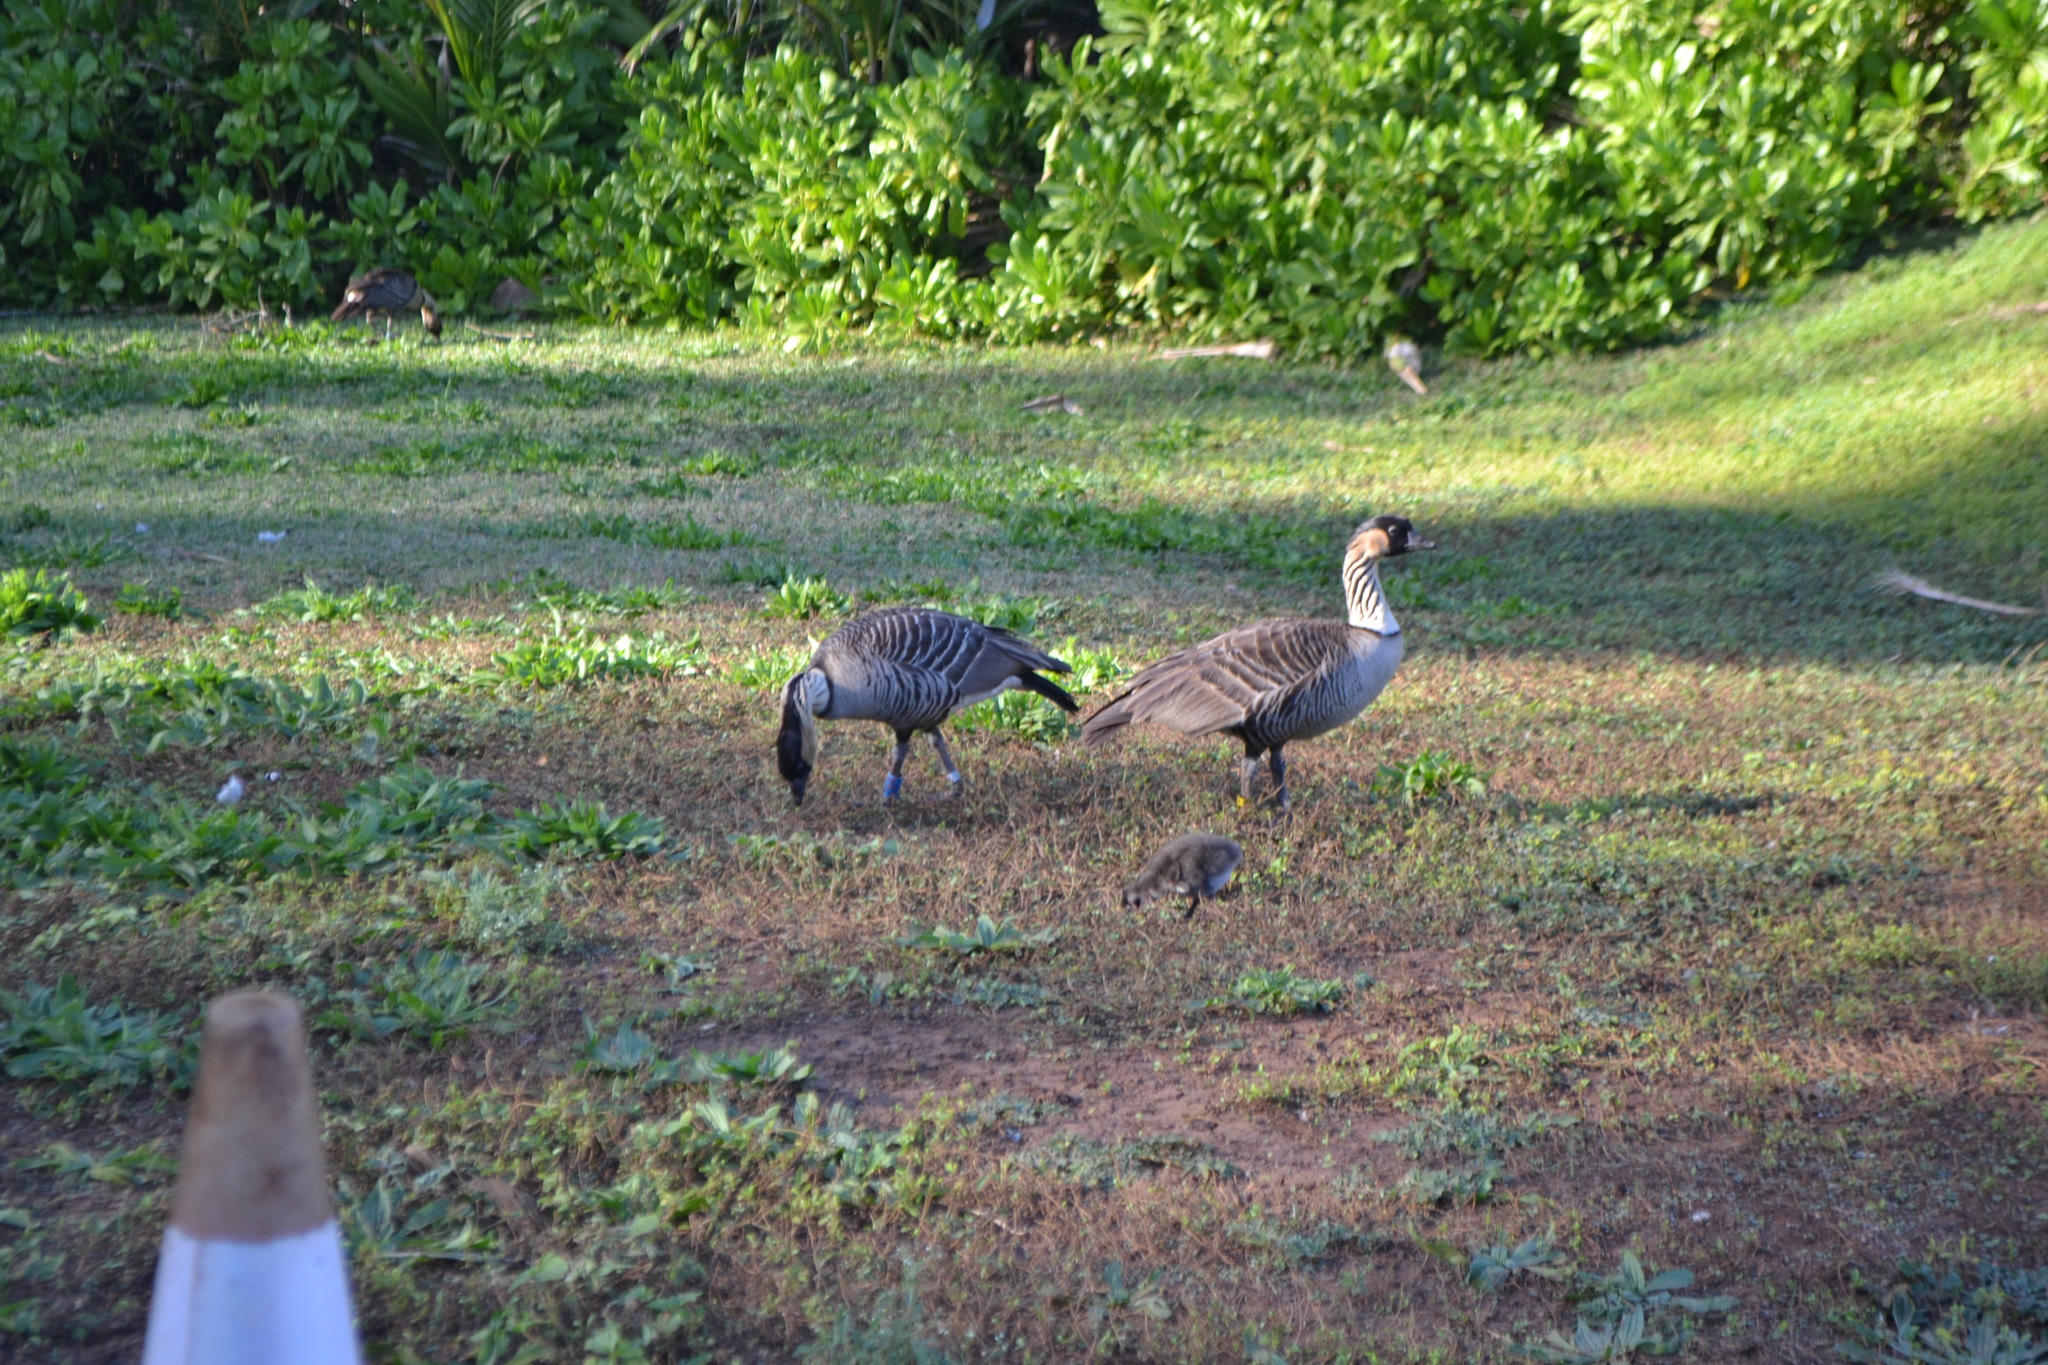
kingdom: Animalia
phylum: Chordata
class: Aves
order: Anseriformes
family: Anatidae
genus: Branta
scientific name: Branta sandvicensis
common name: Nene
